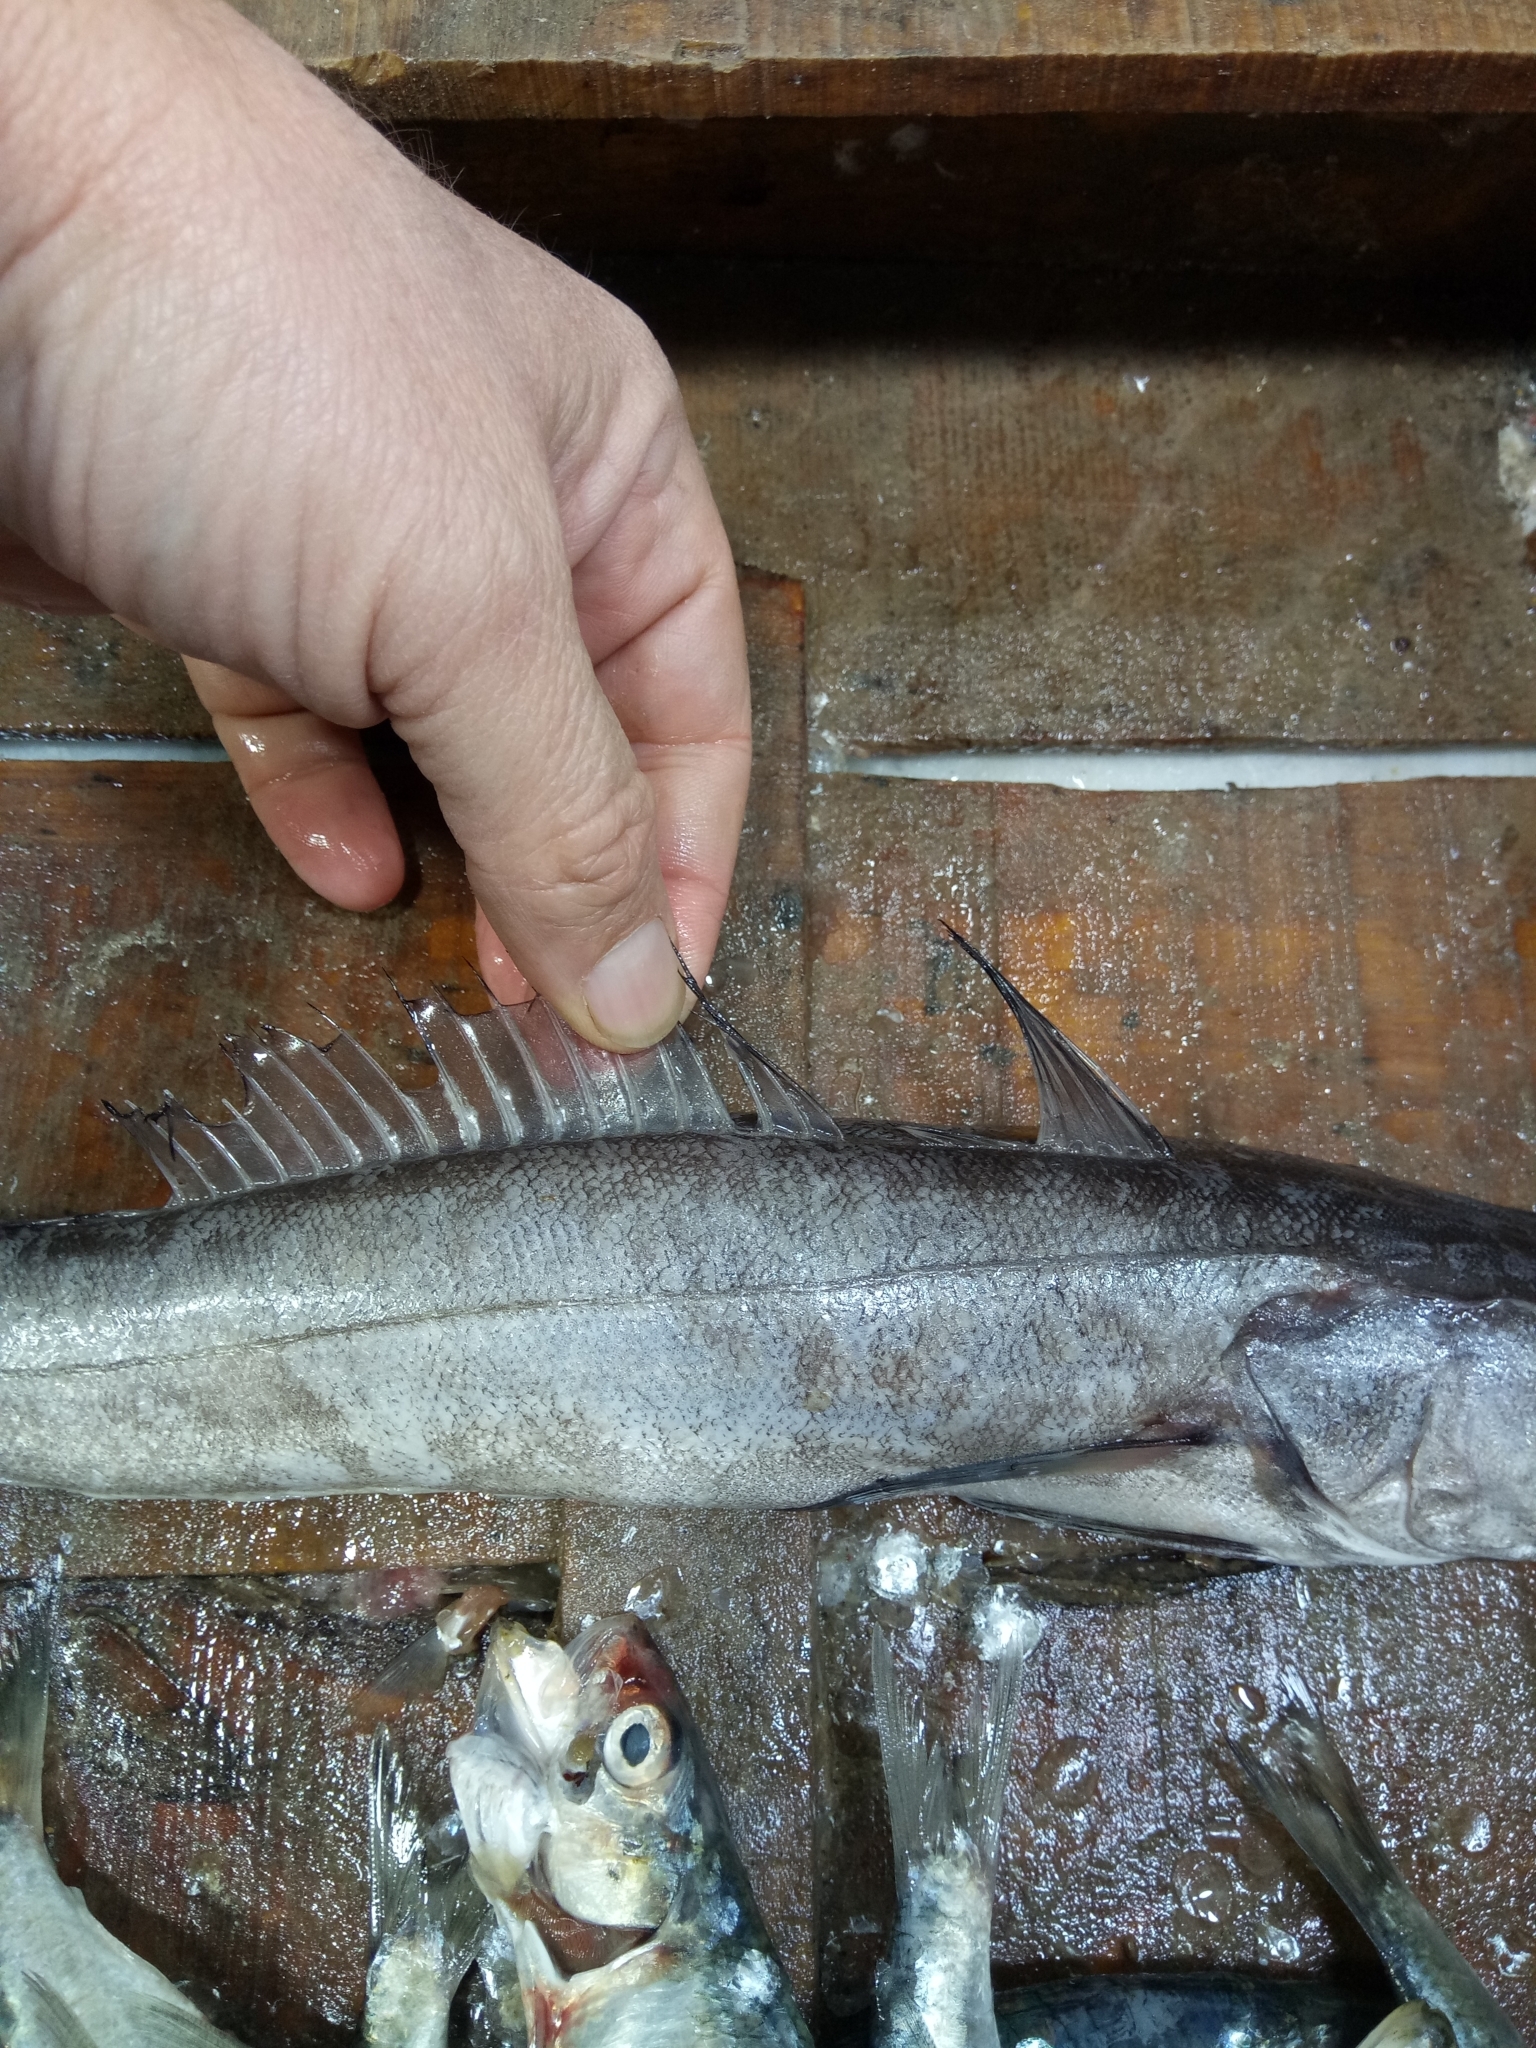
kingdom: Animalia
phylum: Chordata
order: Gadiformes
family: Merlucciidae
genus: Merluccius
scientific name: Merluccius merluccius
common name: European hake
